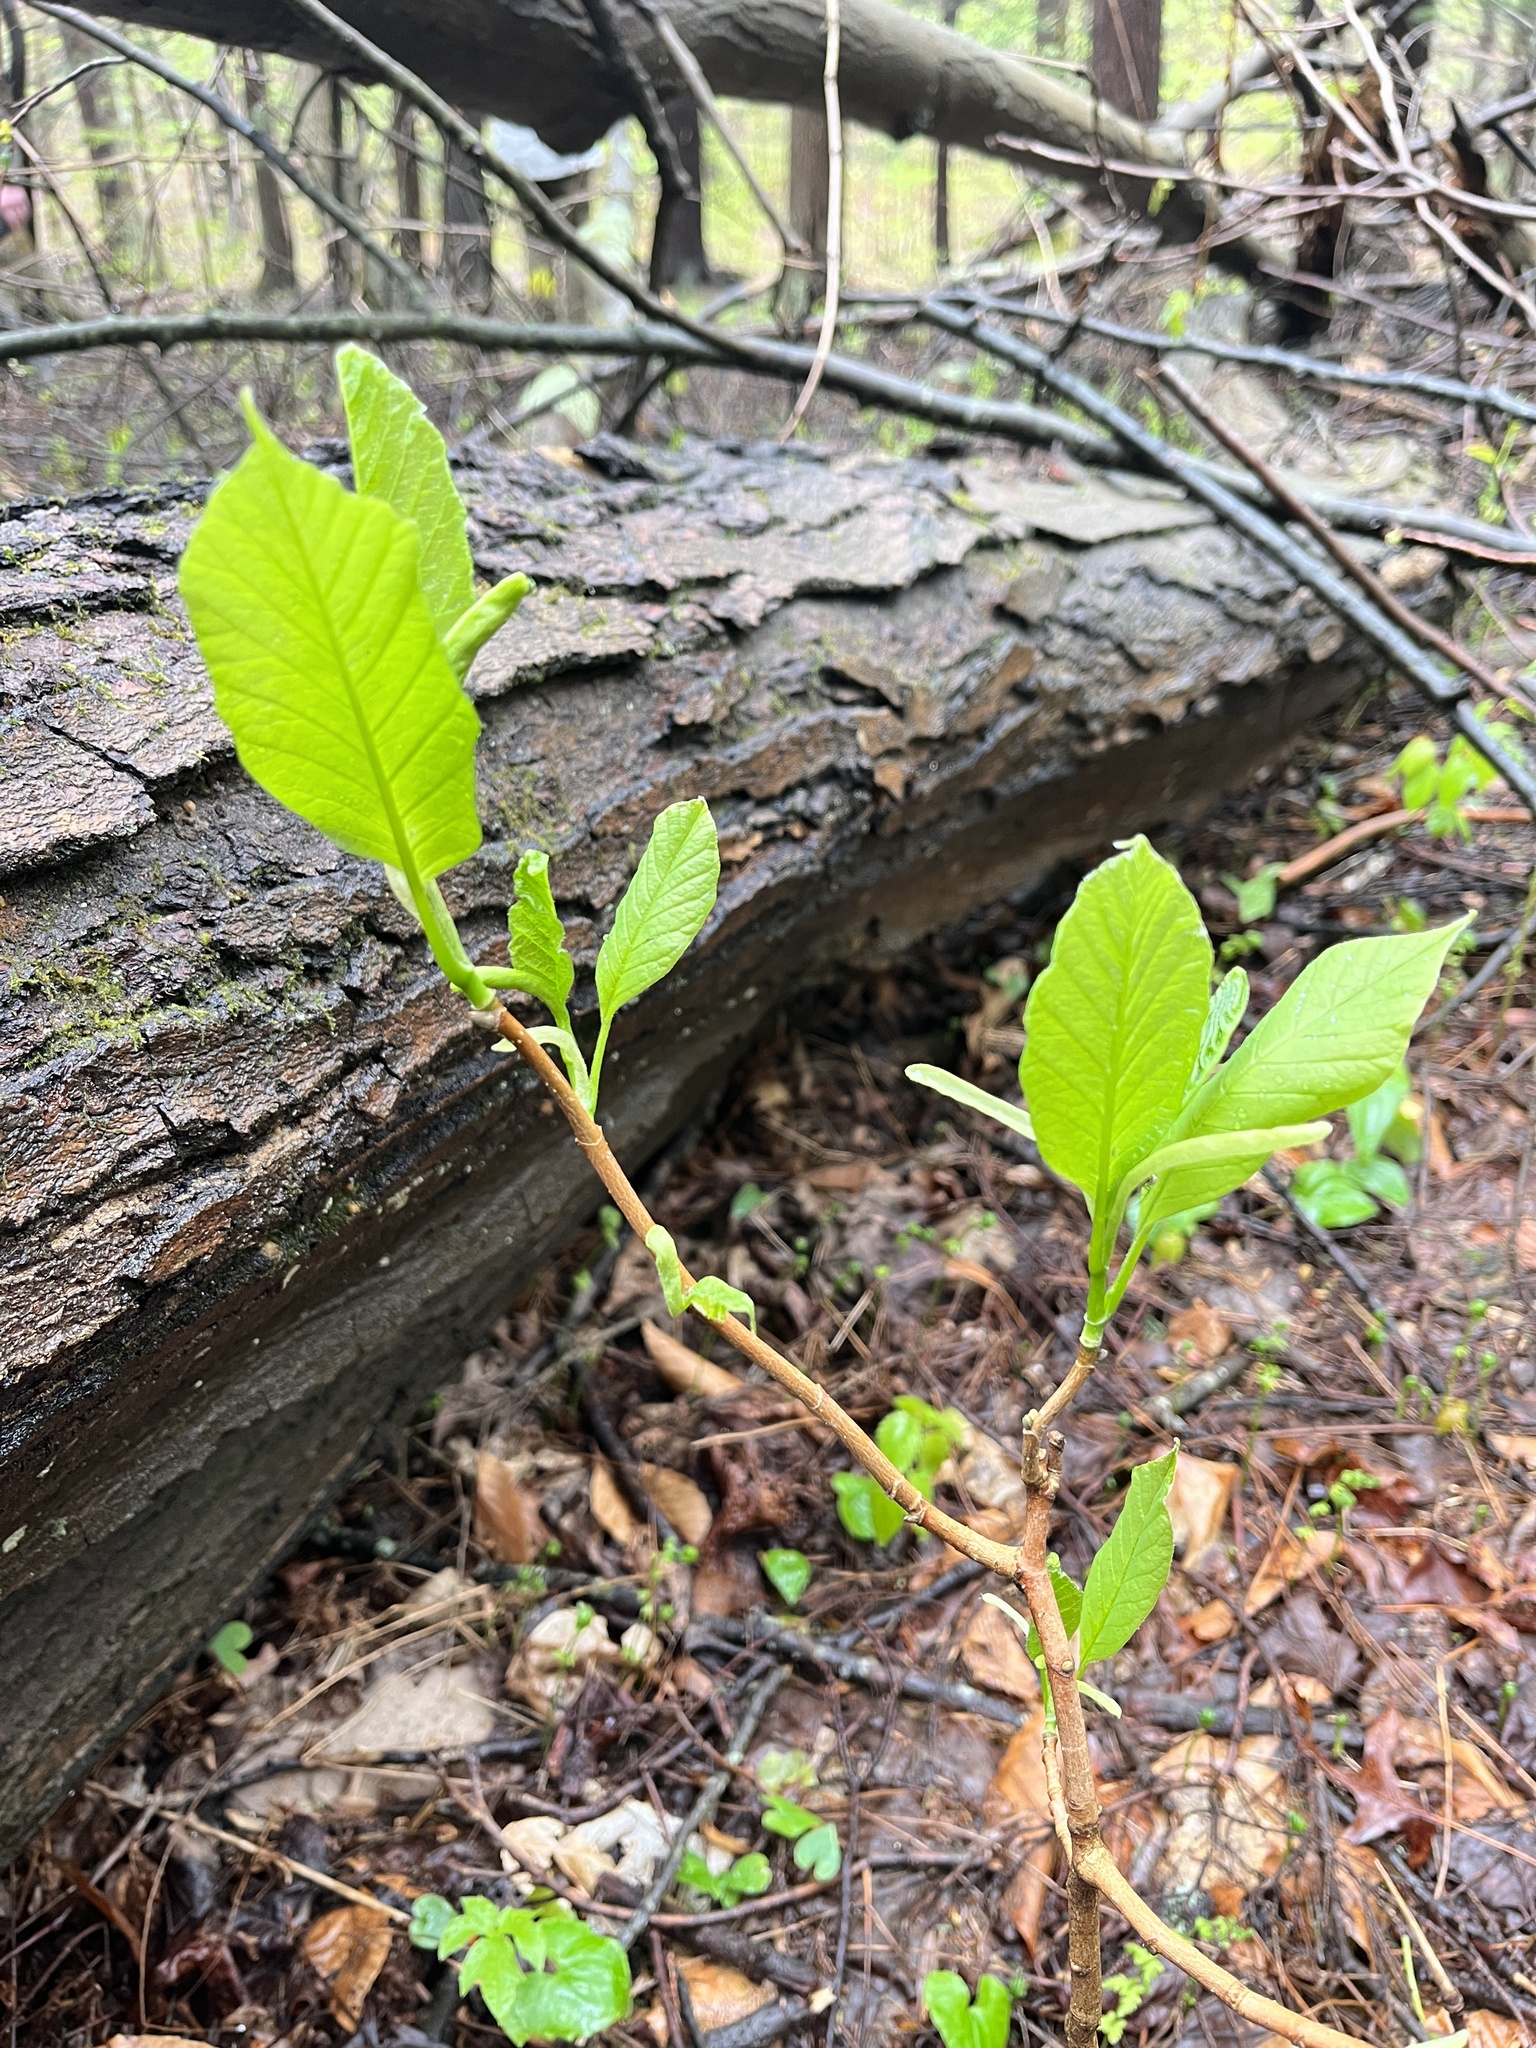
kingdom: Plantae
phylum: Tracheophyta
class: Magnoliopsida
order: Magnoliales
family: Magnoliaceae
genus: Magnolia
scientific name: Magnolia acuminata
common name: Cucumber magnolia
